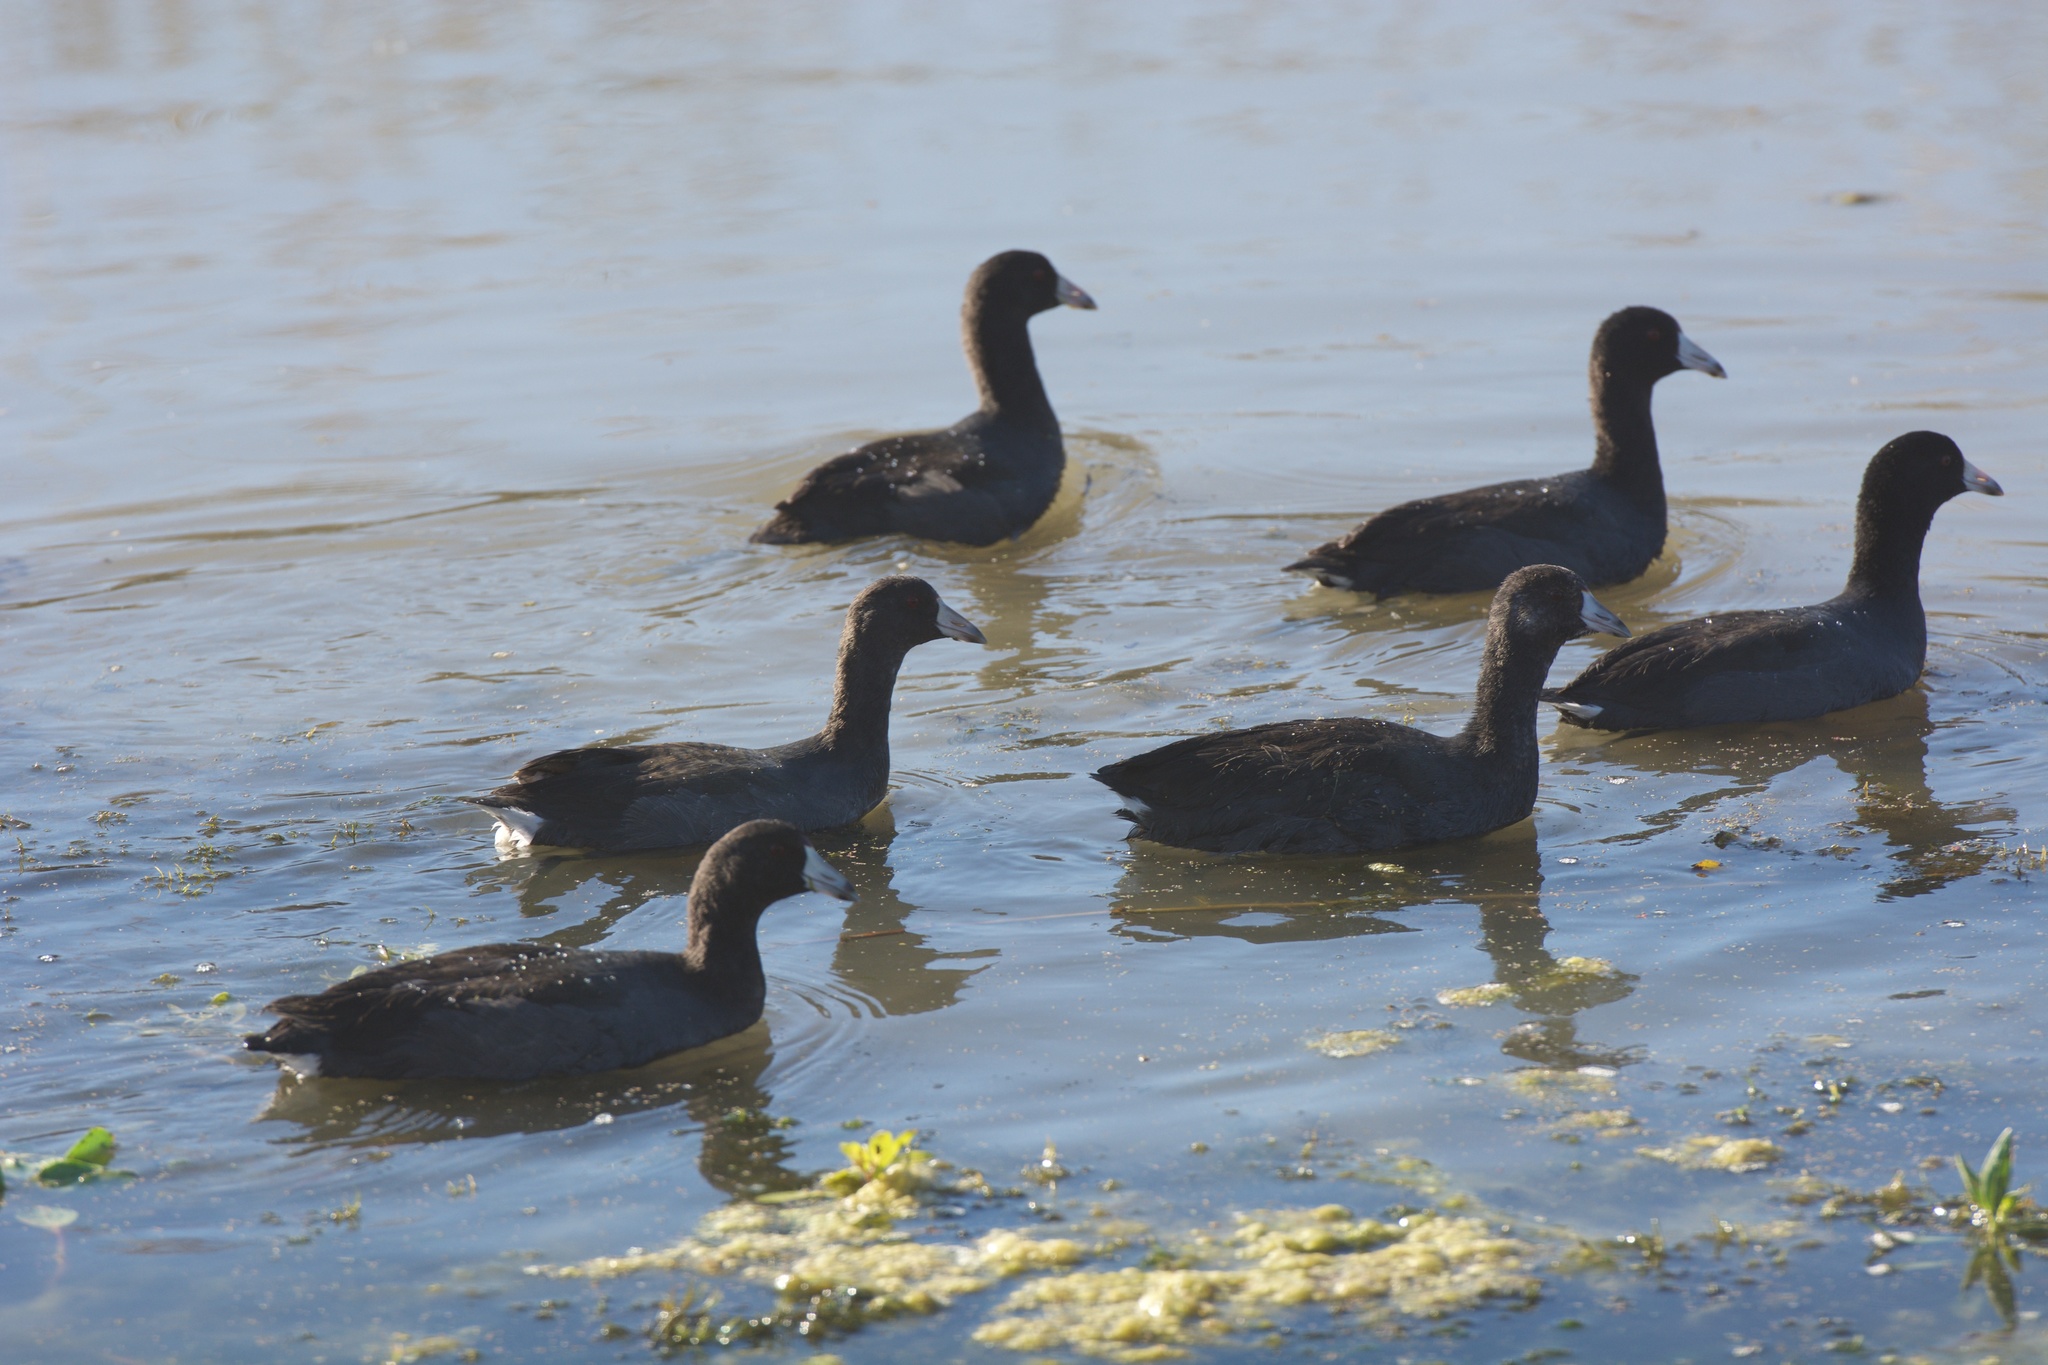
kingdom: Animalia
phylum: Chordata
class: Aves
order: Gruiformes
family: Rallidae
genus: Fulica
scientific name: Fulica americana
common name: American coot
